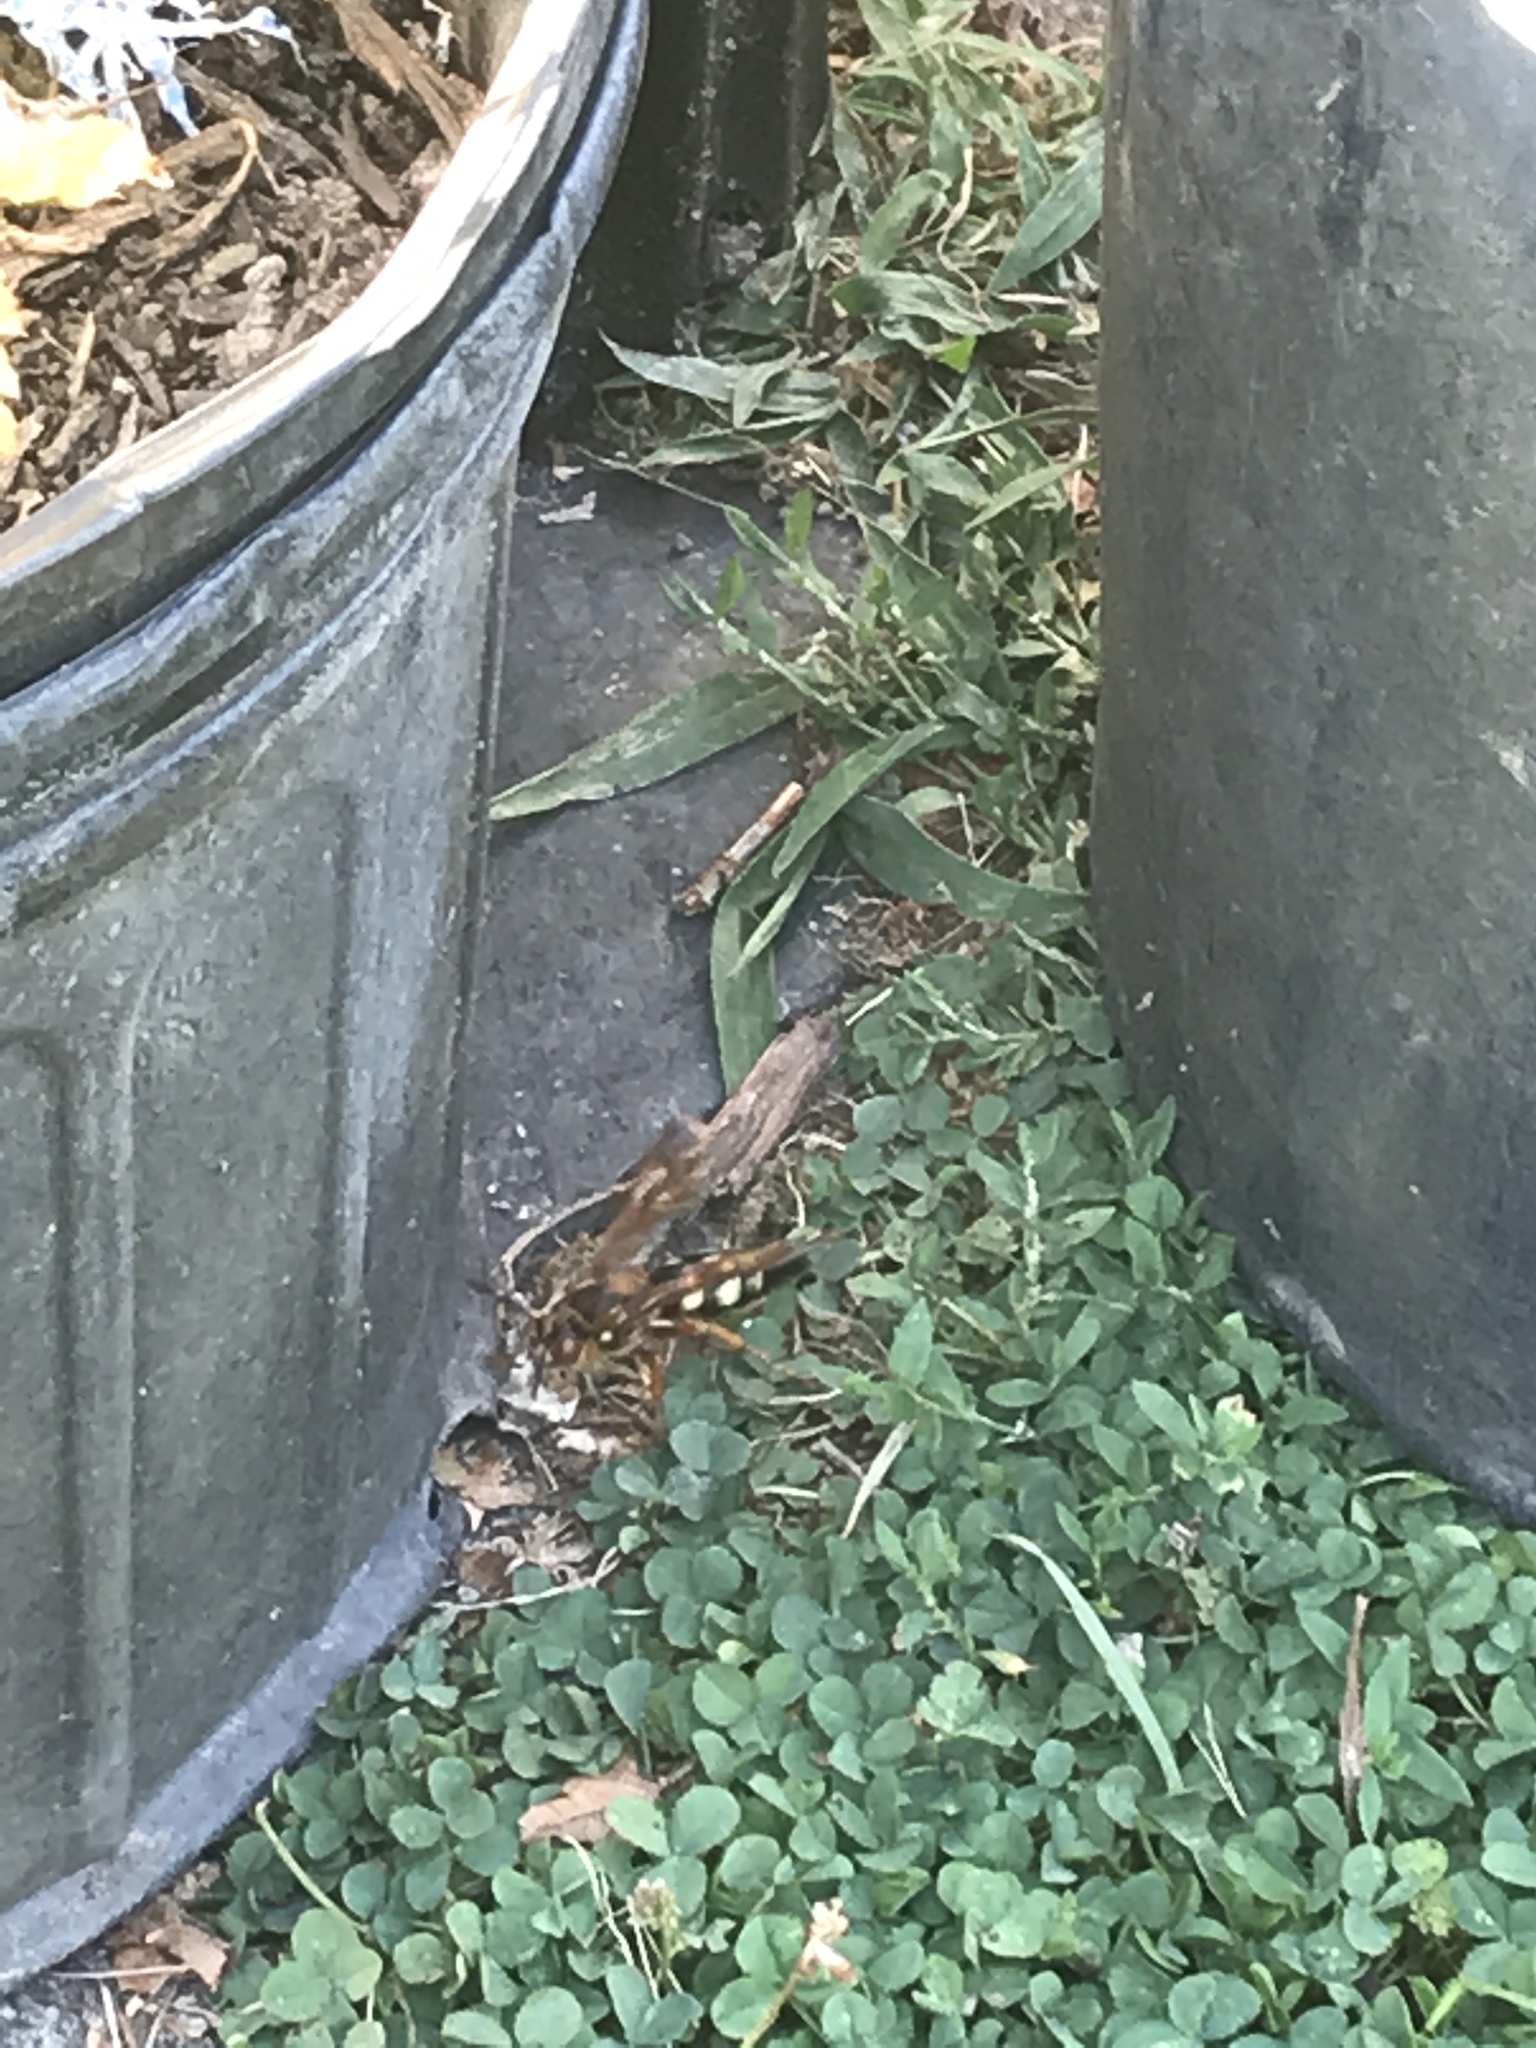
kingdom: Animalia
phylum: Arthropoda
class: Insecta
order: Hymenoptera
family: Crabronidae
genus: Sphecius
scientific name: Sphecius speciosus
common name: Cicada killer
